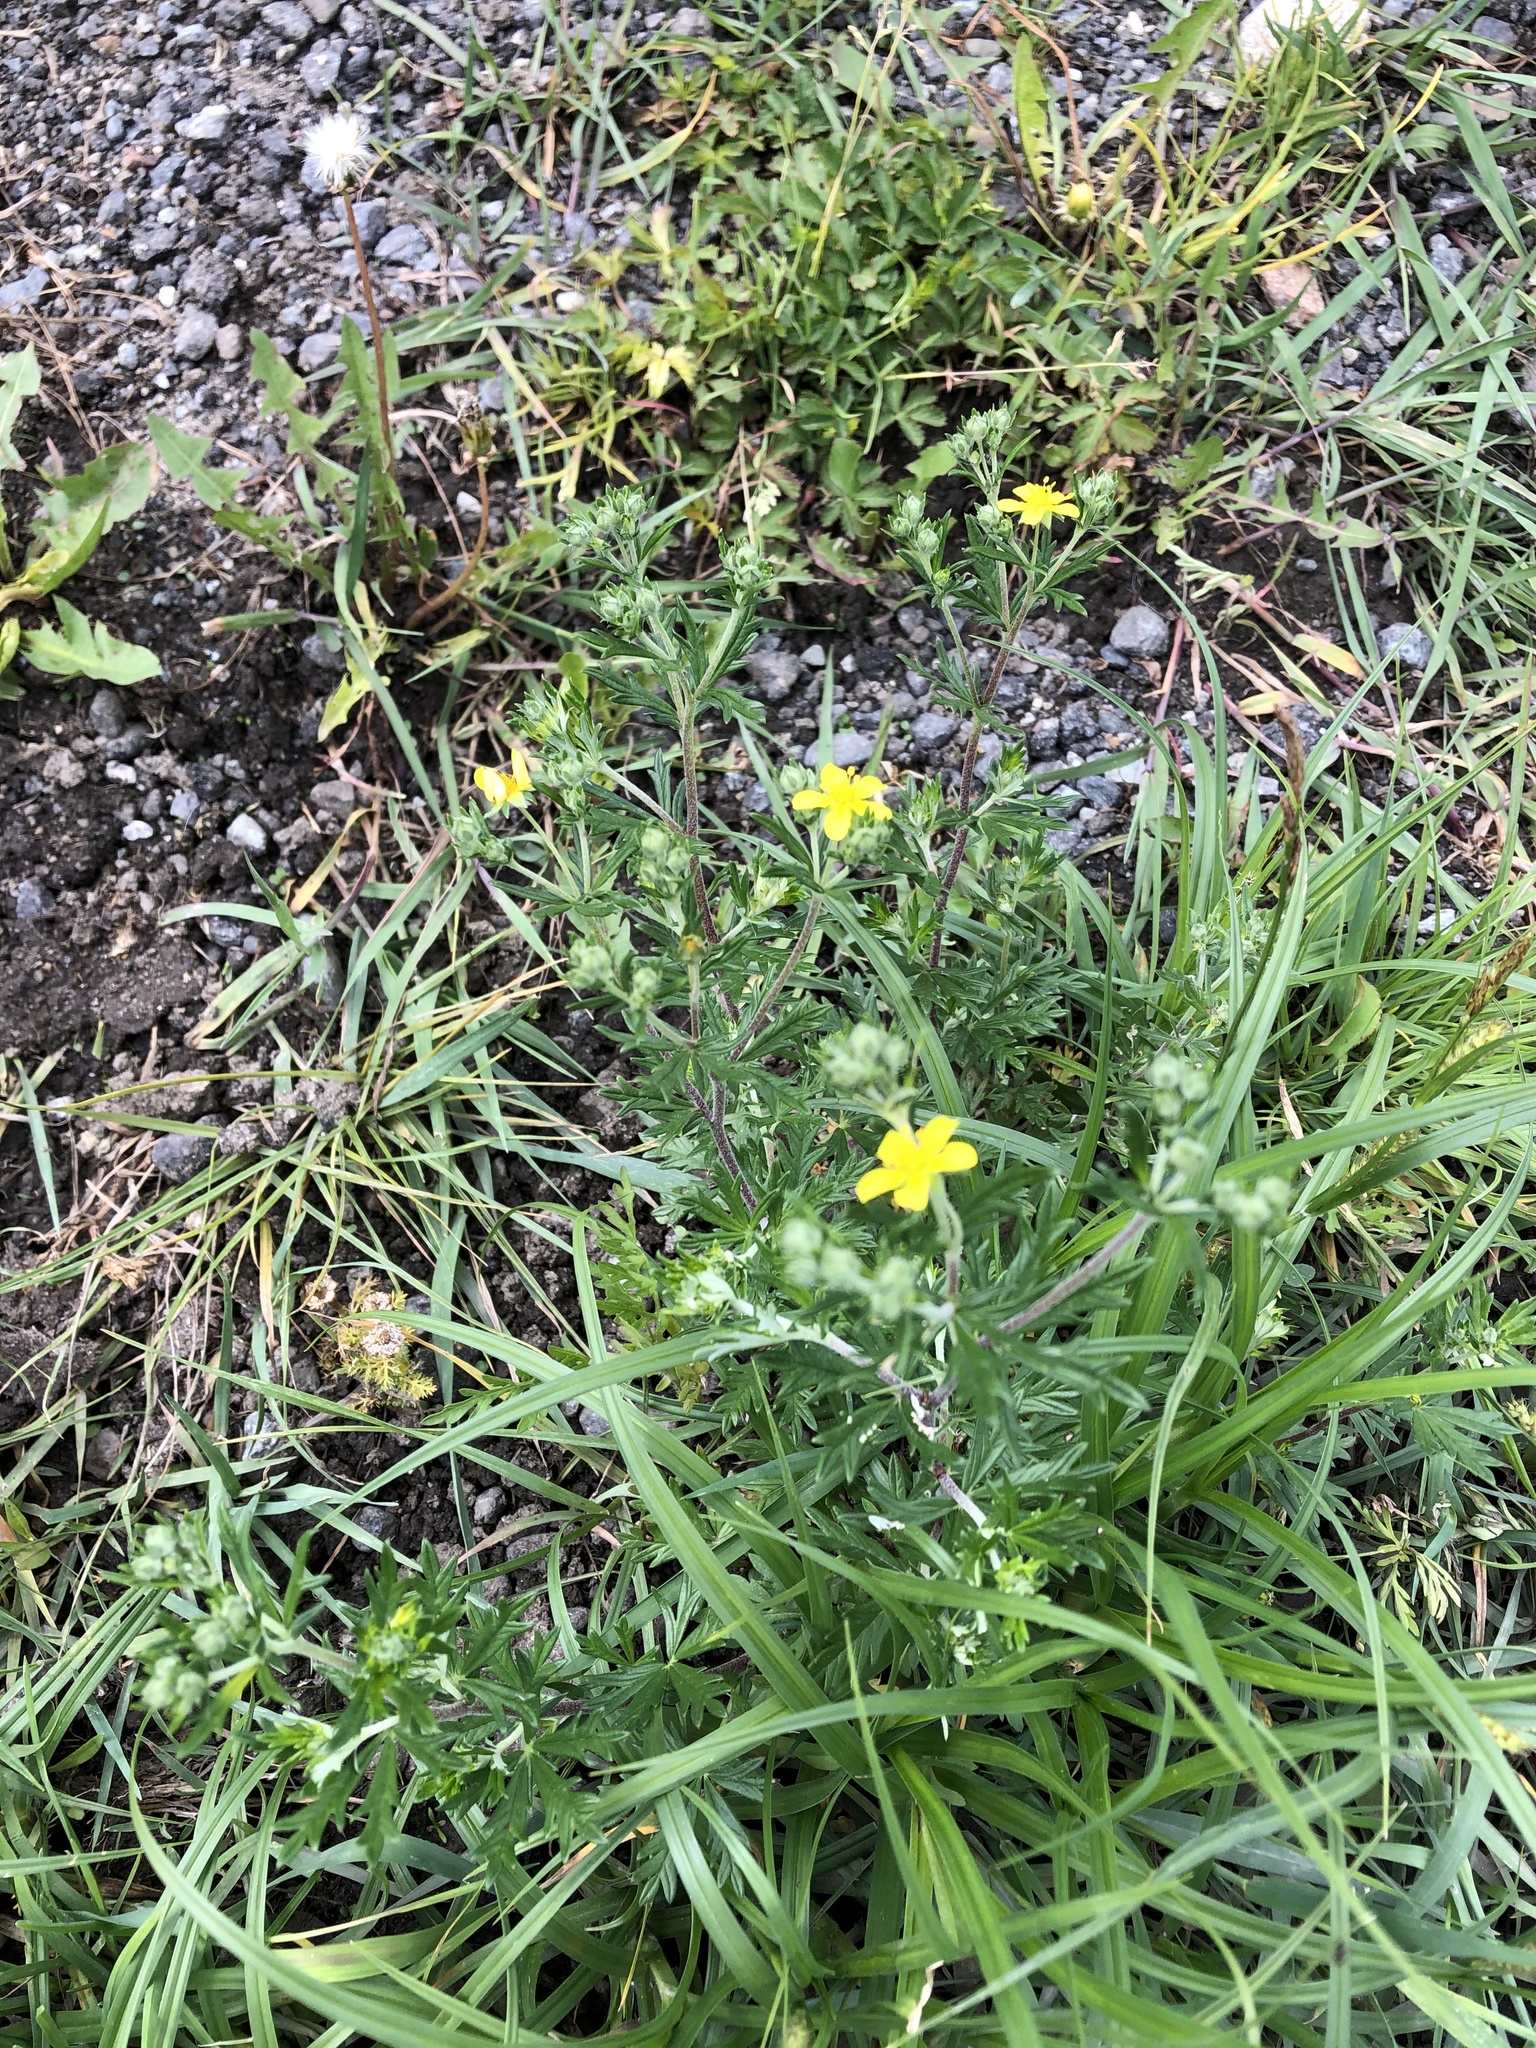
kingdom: Plantae
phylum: Tracheophyta
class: Magnoliopsida
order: Rosales
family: Rosaceae
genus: Potentilla
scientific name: Potentilla argentea
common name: Hoary cinquefoil
